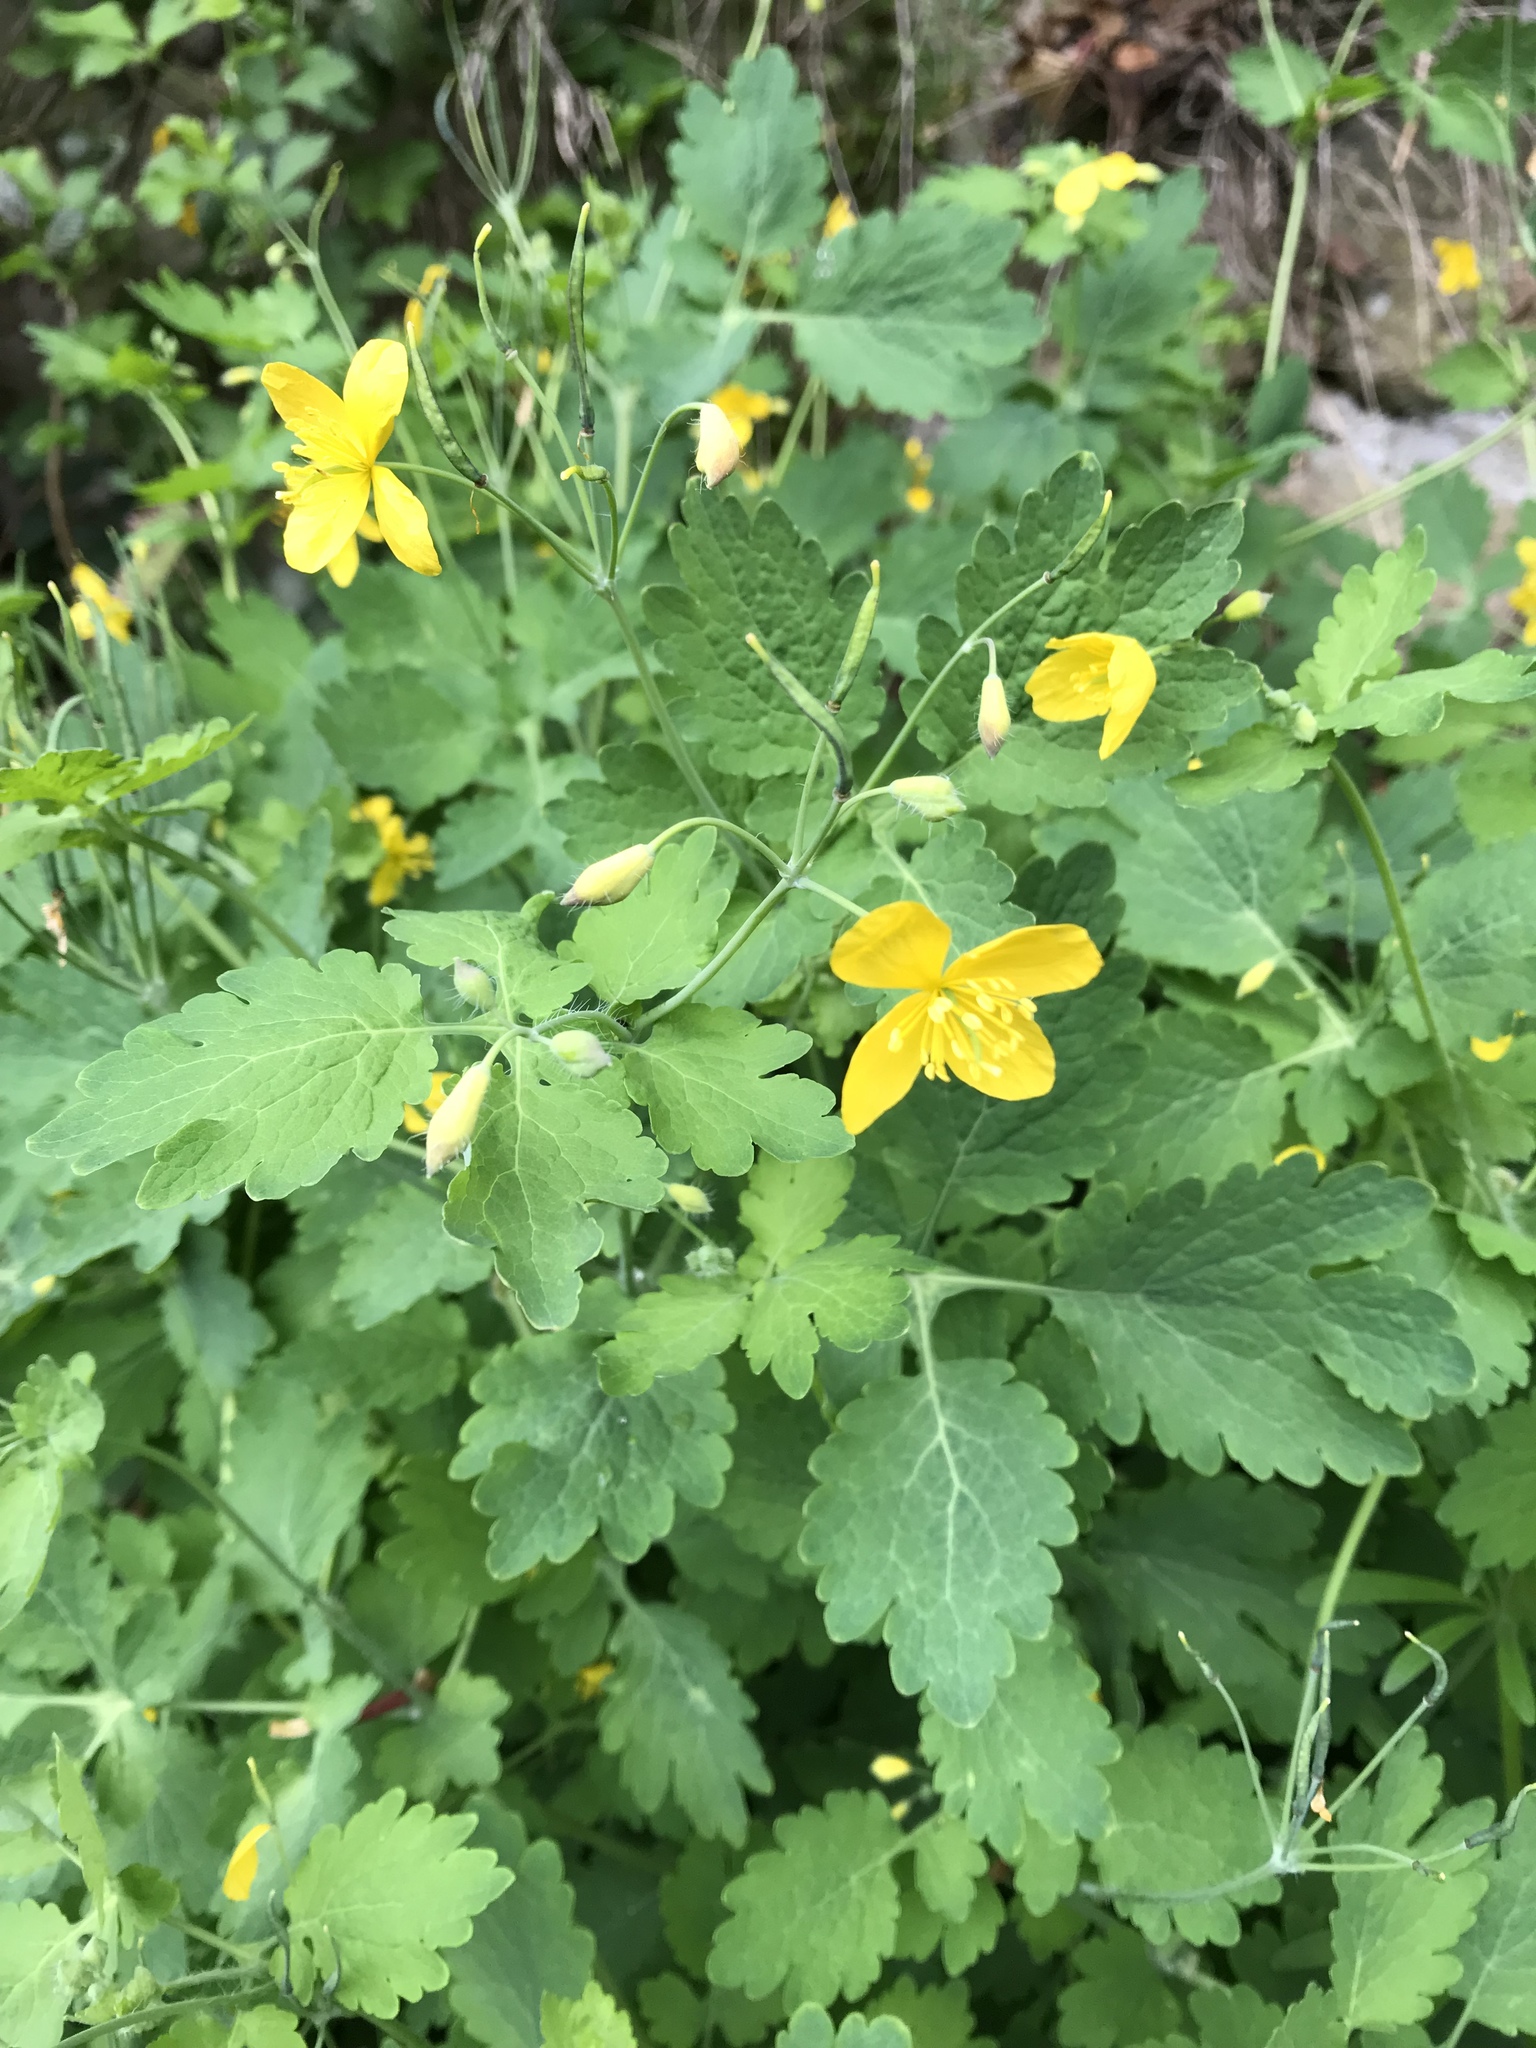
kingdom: Plantae
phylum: Tracheophyta
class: Magnoliopsida
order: Ranunculales
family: Papaveraceae
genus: Chelidonium
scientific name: Chelidonium majus
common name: Greater celandine
